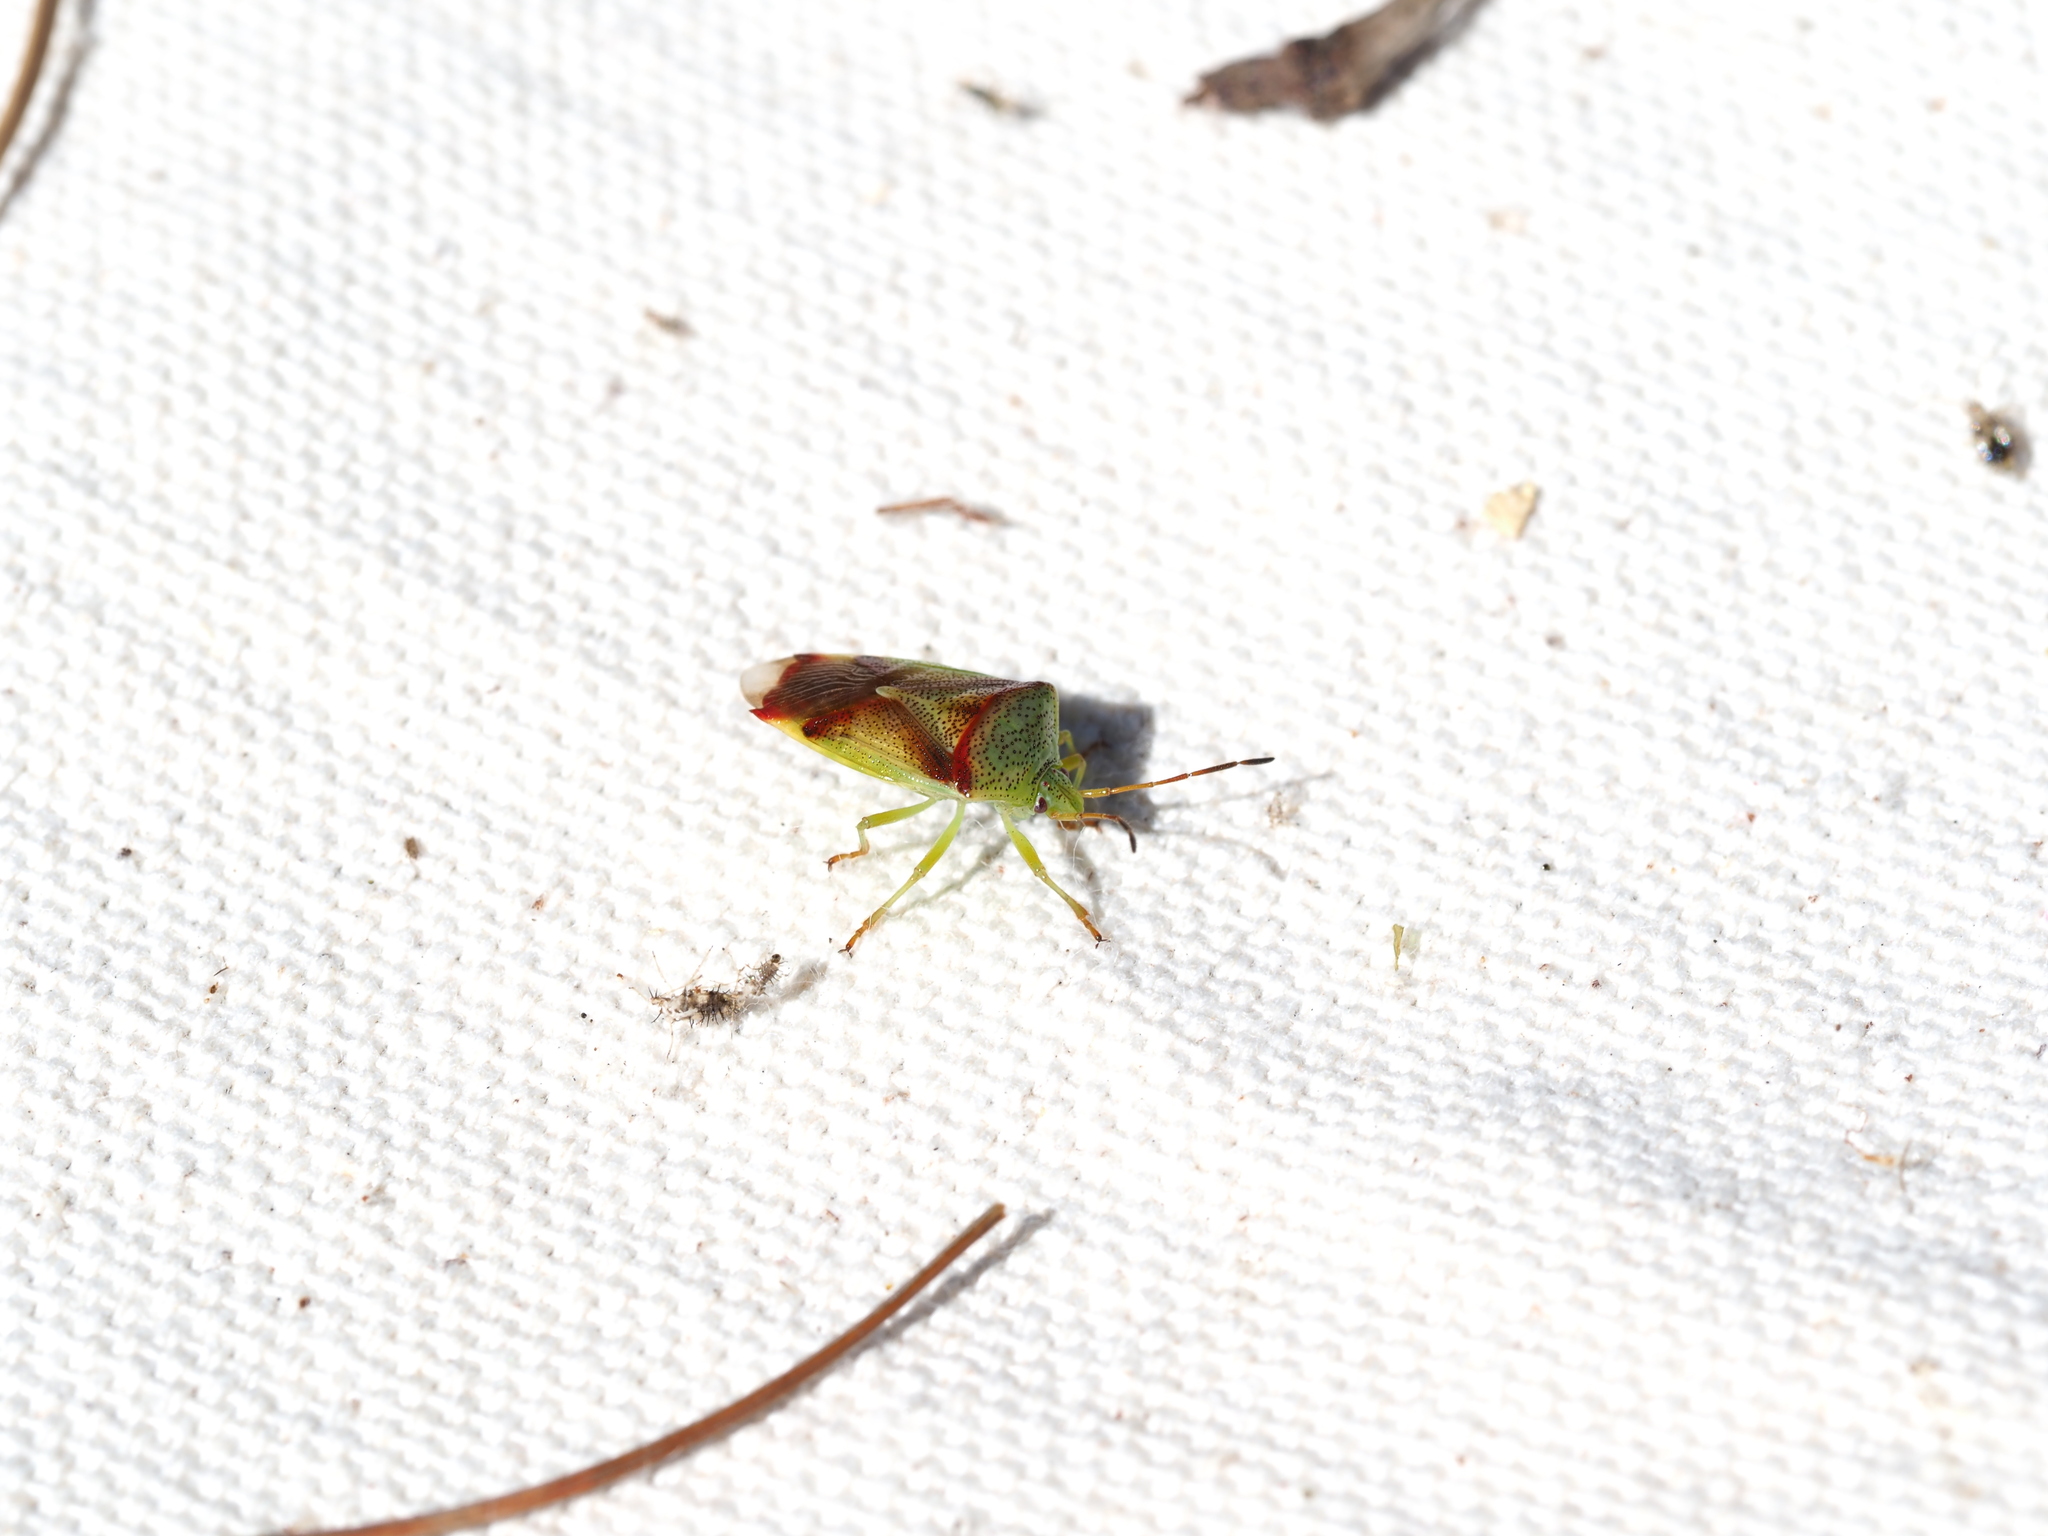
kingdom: Animalia
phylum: Arthropoda
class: Insecta
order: Hemiptera
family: Acanthosomatidae
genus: Elasmostethus
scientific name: Elasmostethus cruciatus
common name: Red-cross shield bug
